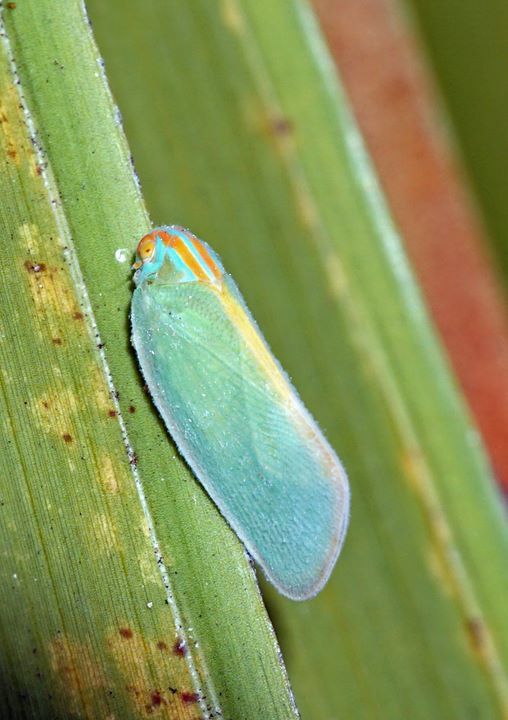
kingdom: Animalia
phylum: Arthropoda
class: Insecta
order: Hemiptera
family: Flatidae
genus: Ormenaria
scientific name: Ormenaria rufifascia
